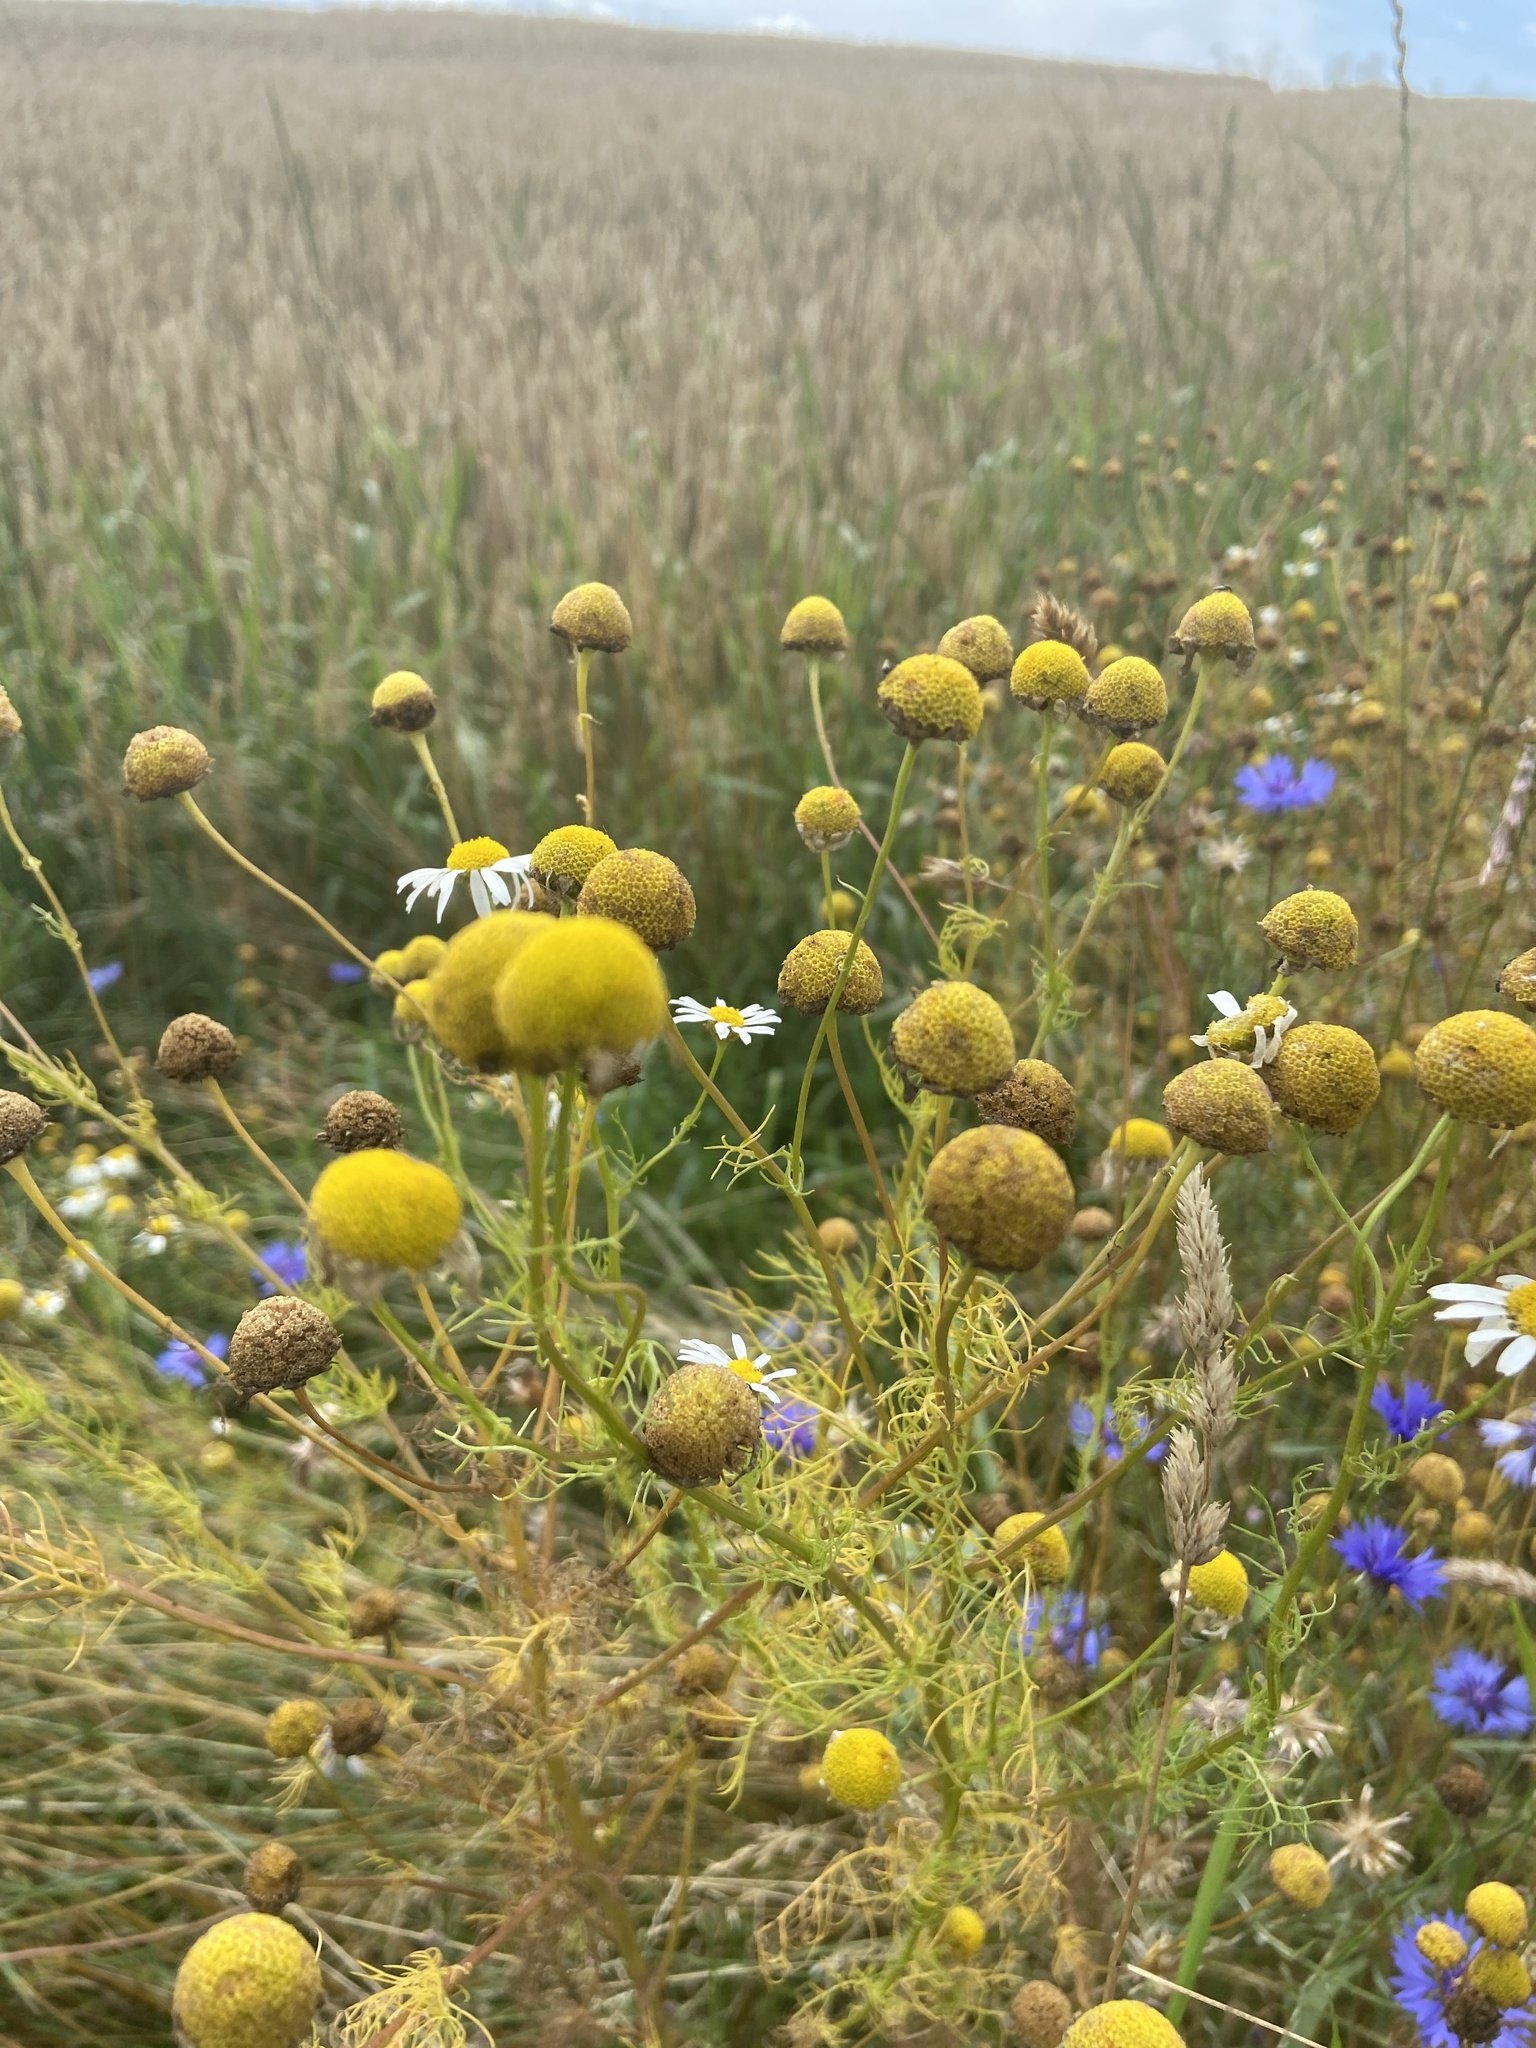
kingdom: Plantae
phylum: Tracheophyta
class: Magnoliopsida
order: Asterales
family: Asteraceae
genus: Tripleurospermum
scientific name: Tripleurospermum inodorum
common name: Scentless mayweed
